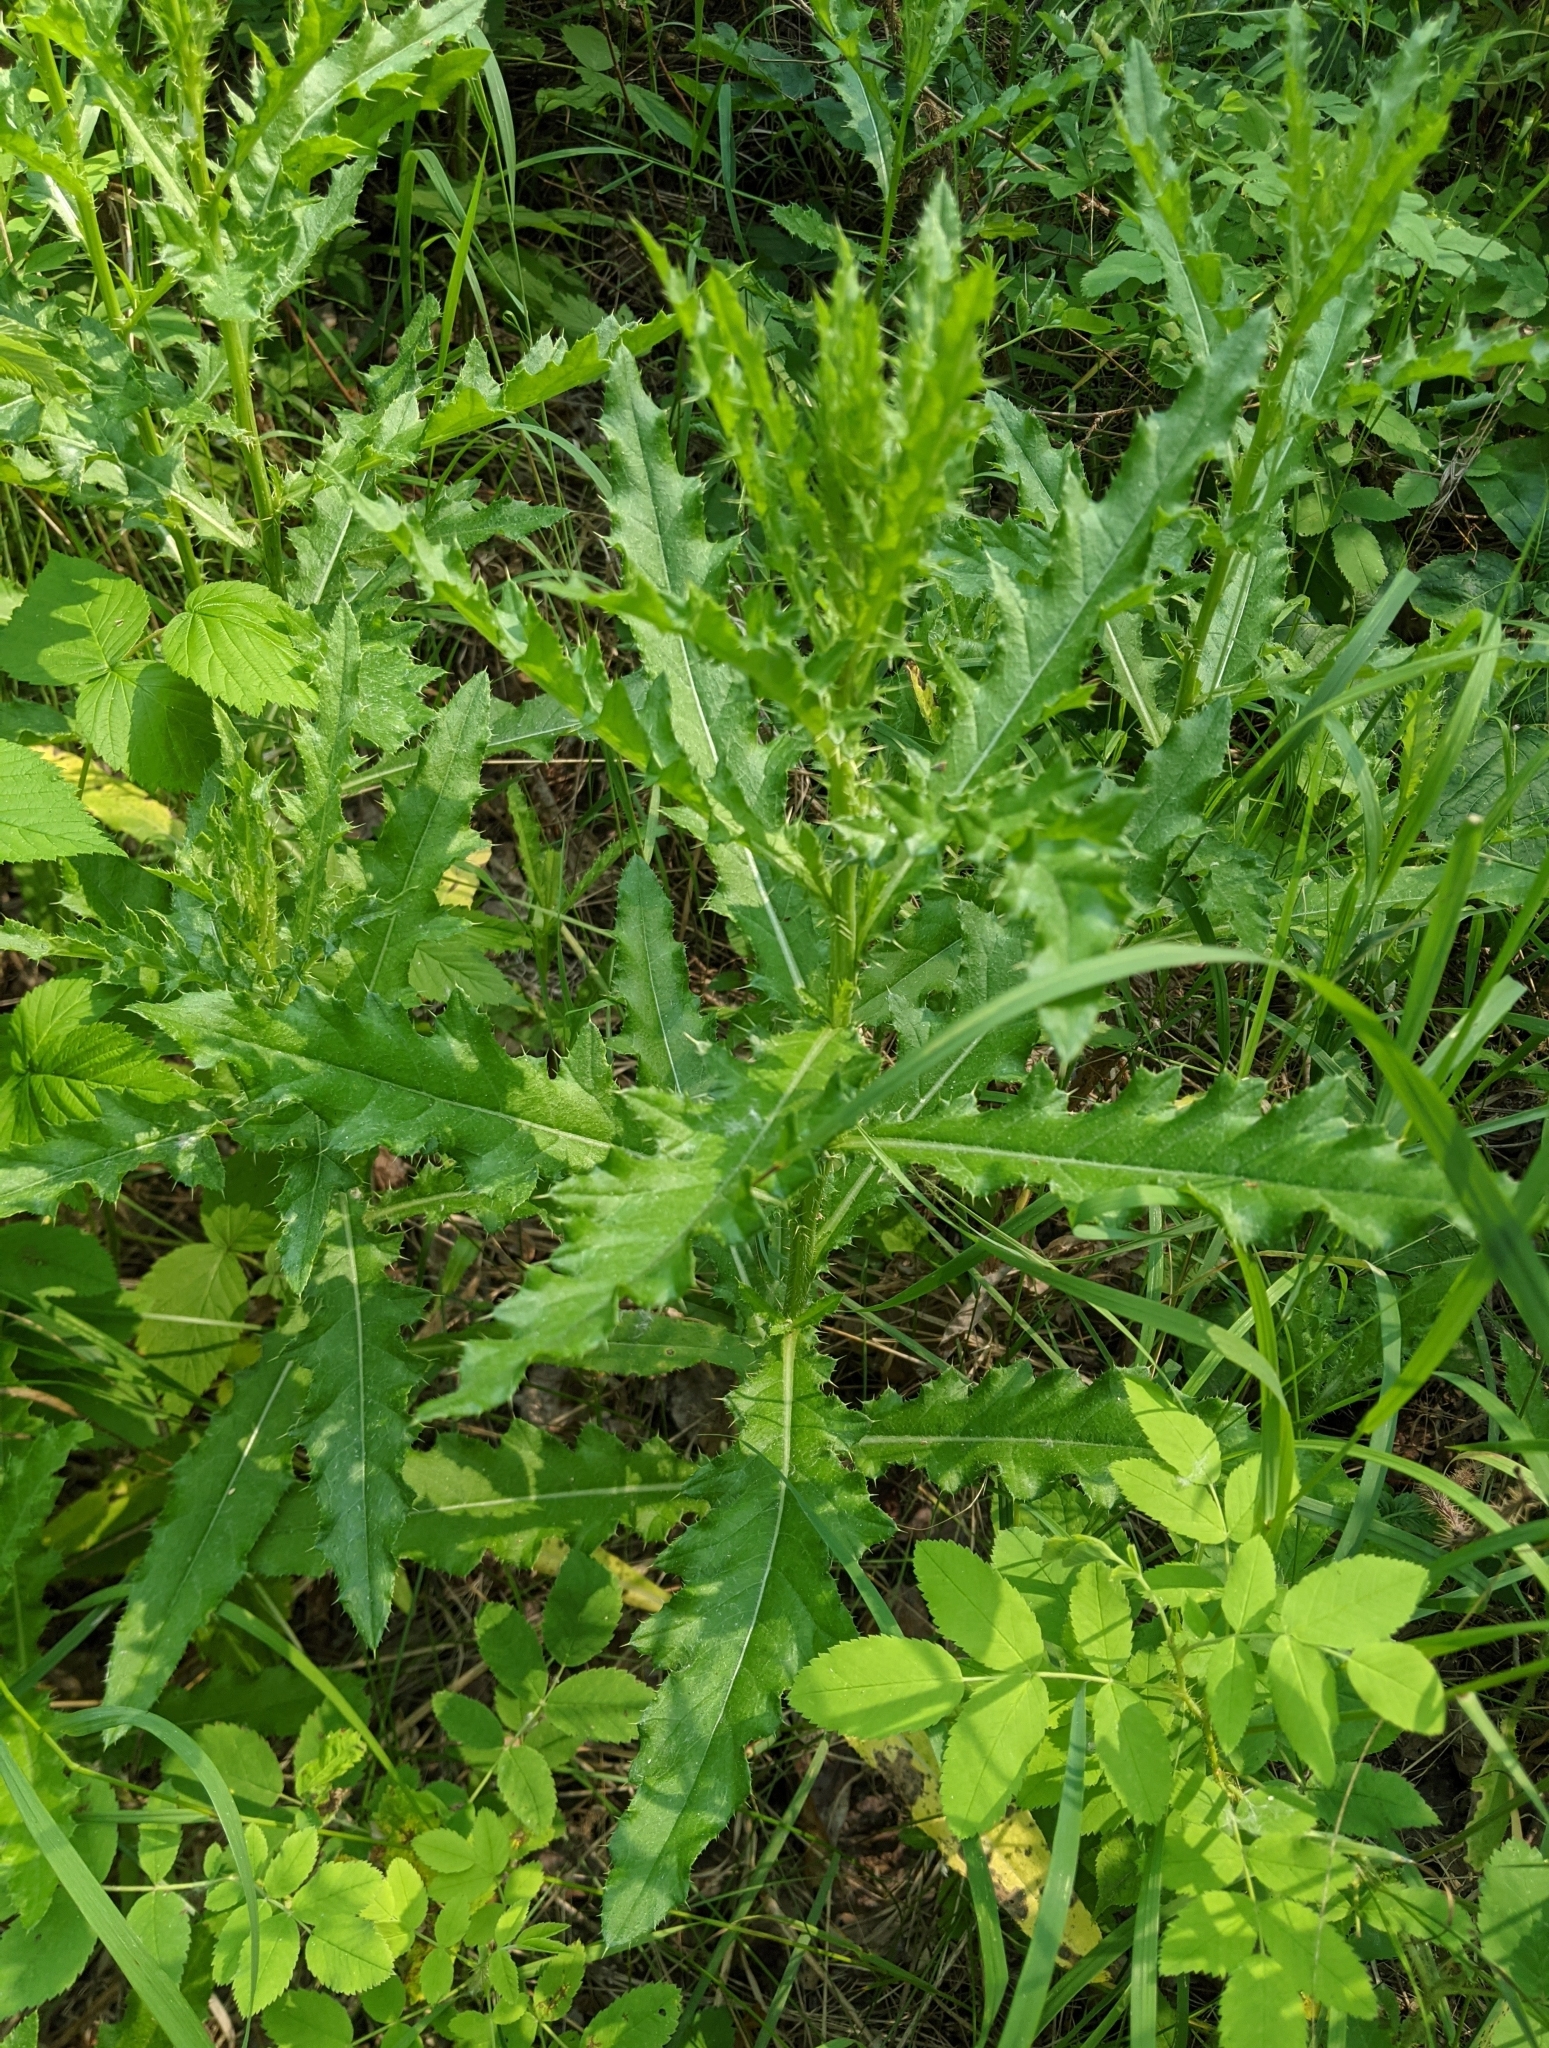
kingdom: Plantae
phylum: Tracheophyta
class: Magnoliopsida
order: Asterales
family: Asteraceae
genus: Cirsium
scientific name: Cirsium arvense
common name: Creeping thistle
